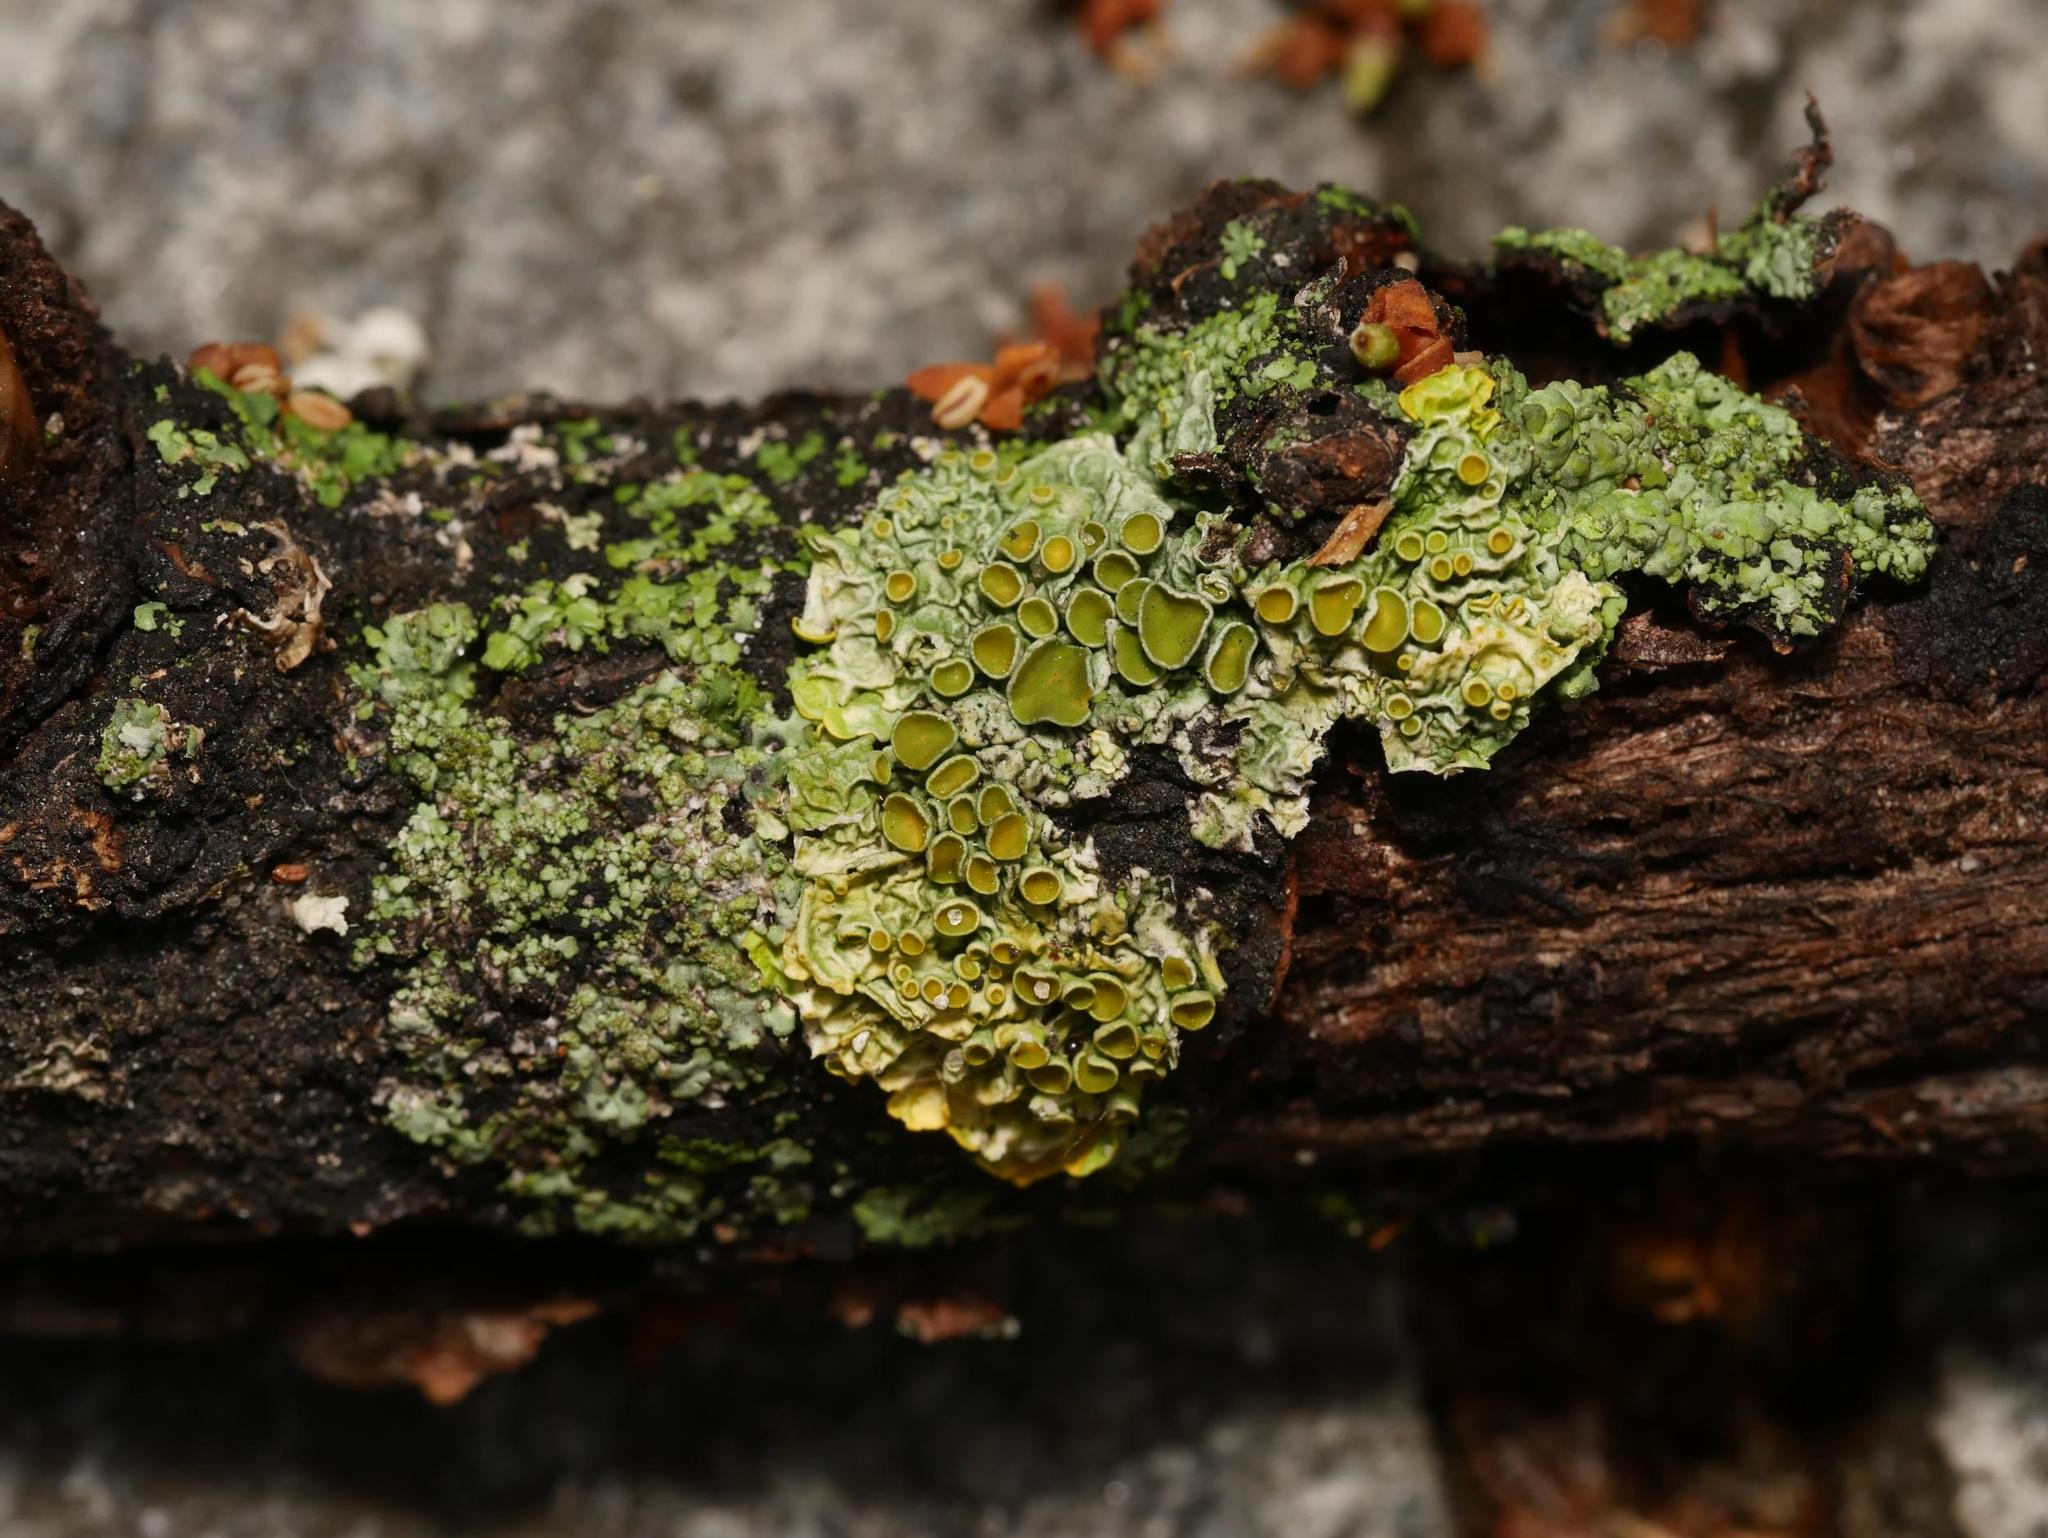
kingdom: Fungi
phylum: Ascomycota
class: Lecanoromycetes
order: Teloschistales
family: Teloschistaceae
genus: Xanthoria
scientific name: Xanthoria parietina
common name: Common orange lichen
